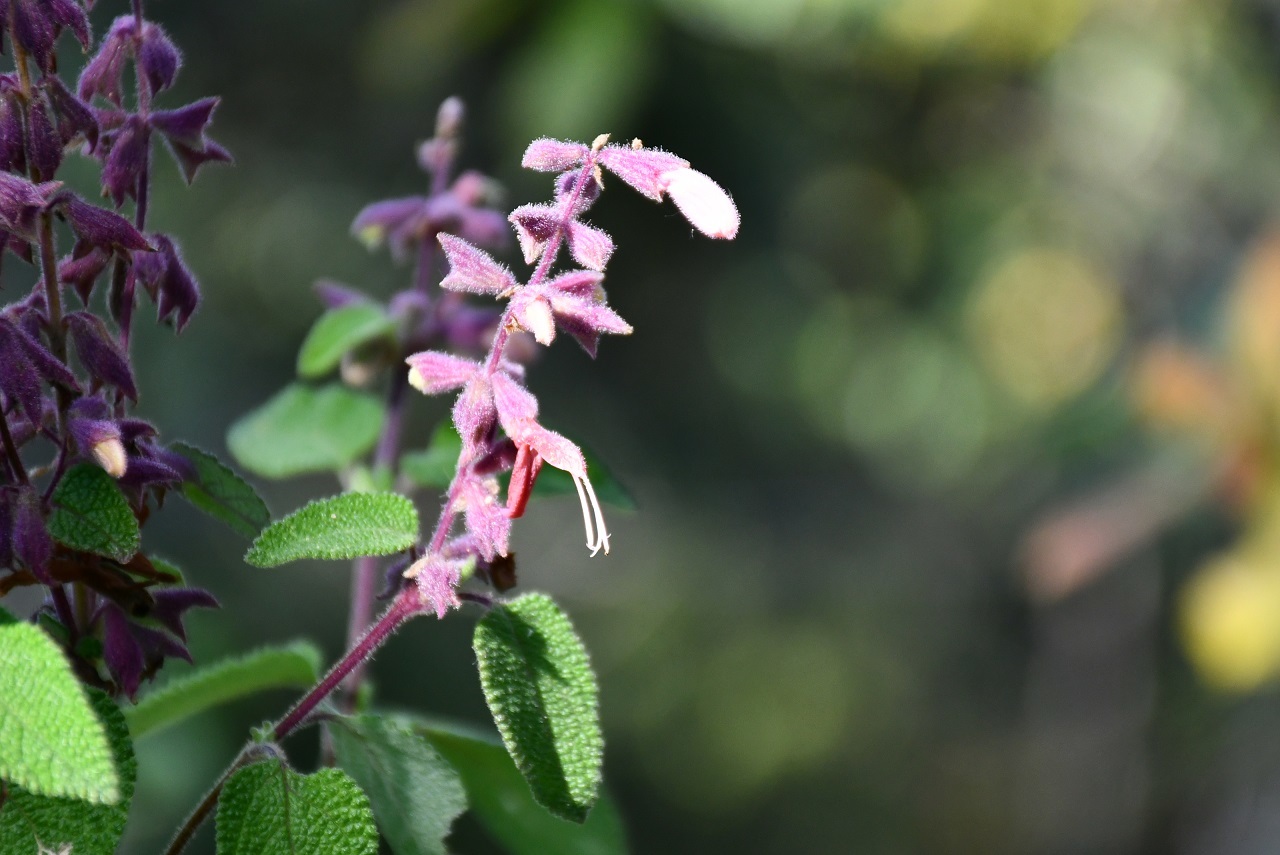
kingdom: Plantae
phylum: Tracheophyta
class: Magnoliopsida
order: Lamiales
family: Lamiaceae
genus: Salvia
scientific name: Salvia lasiantha
